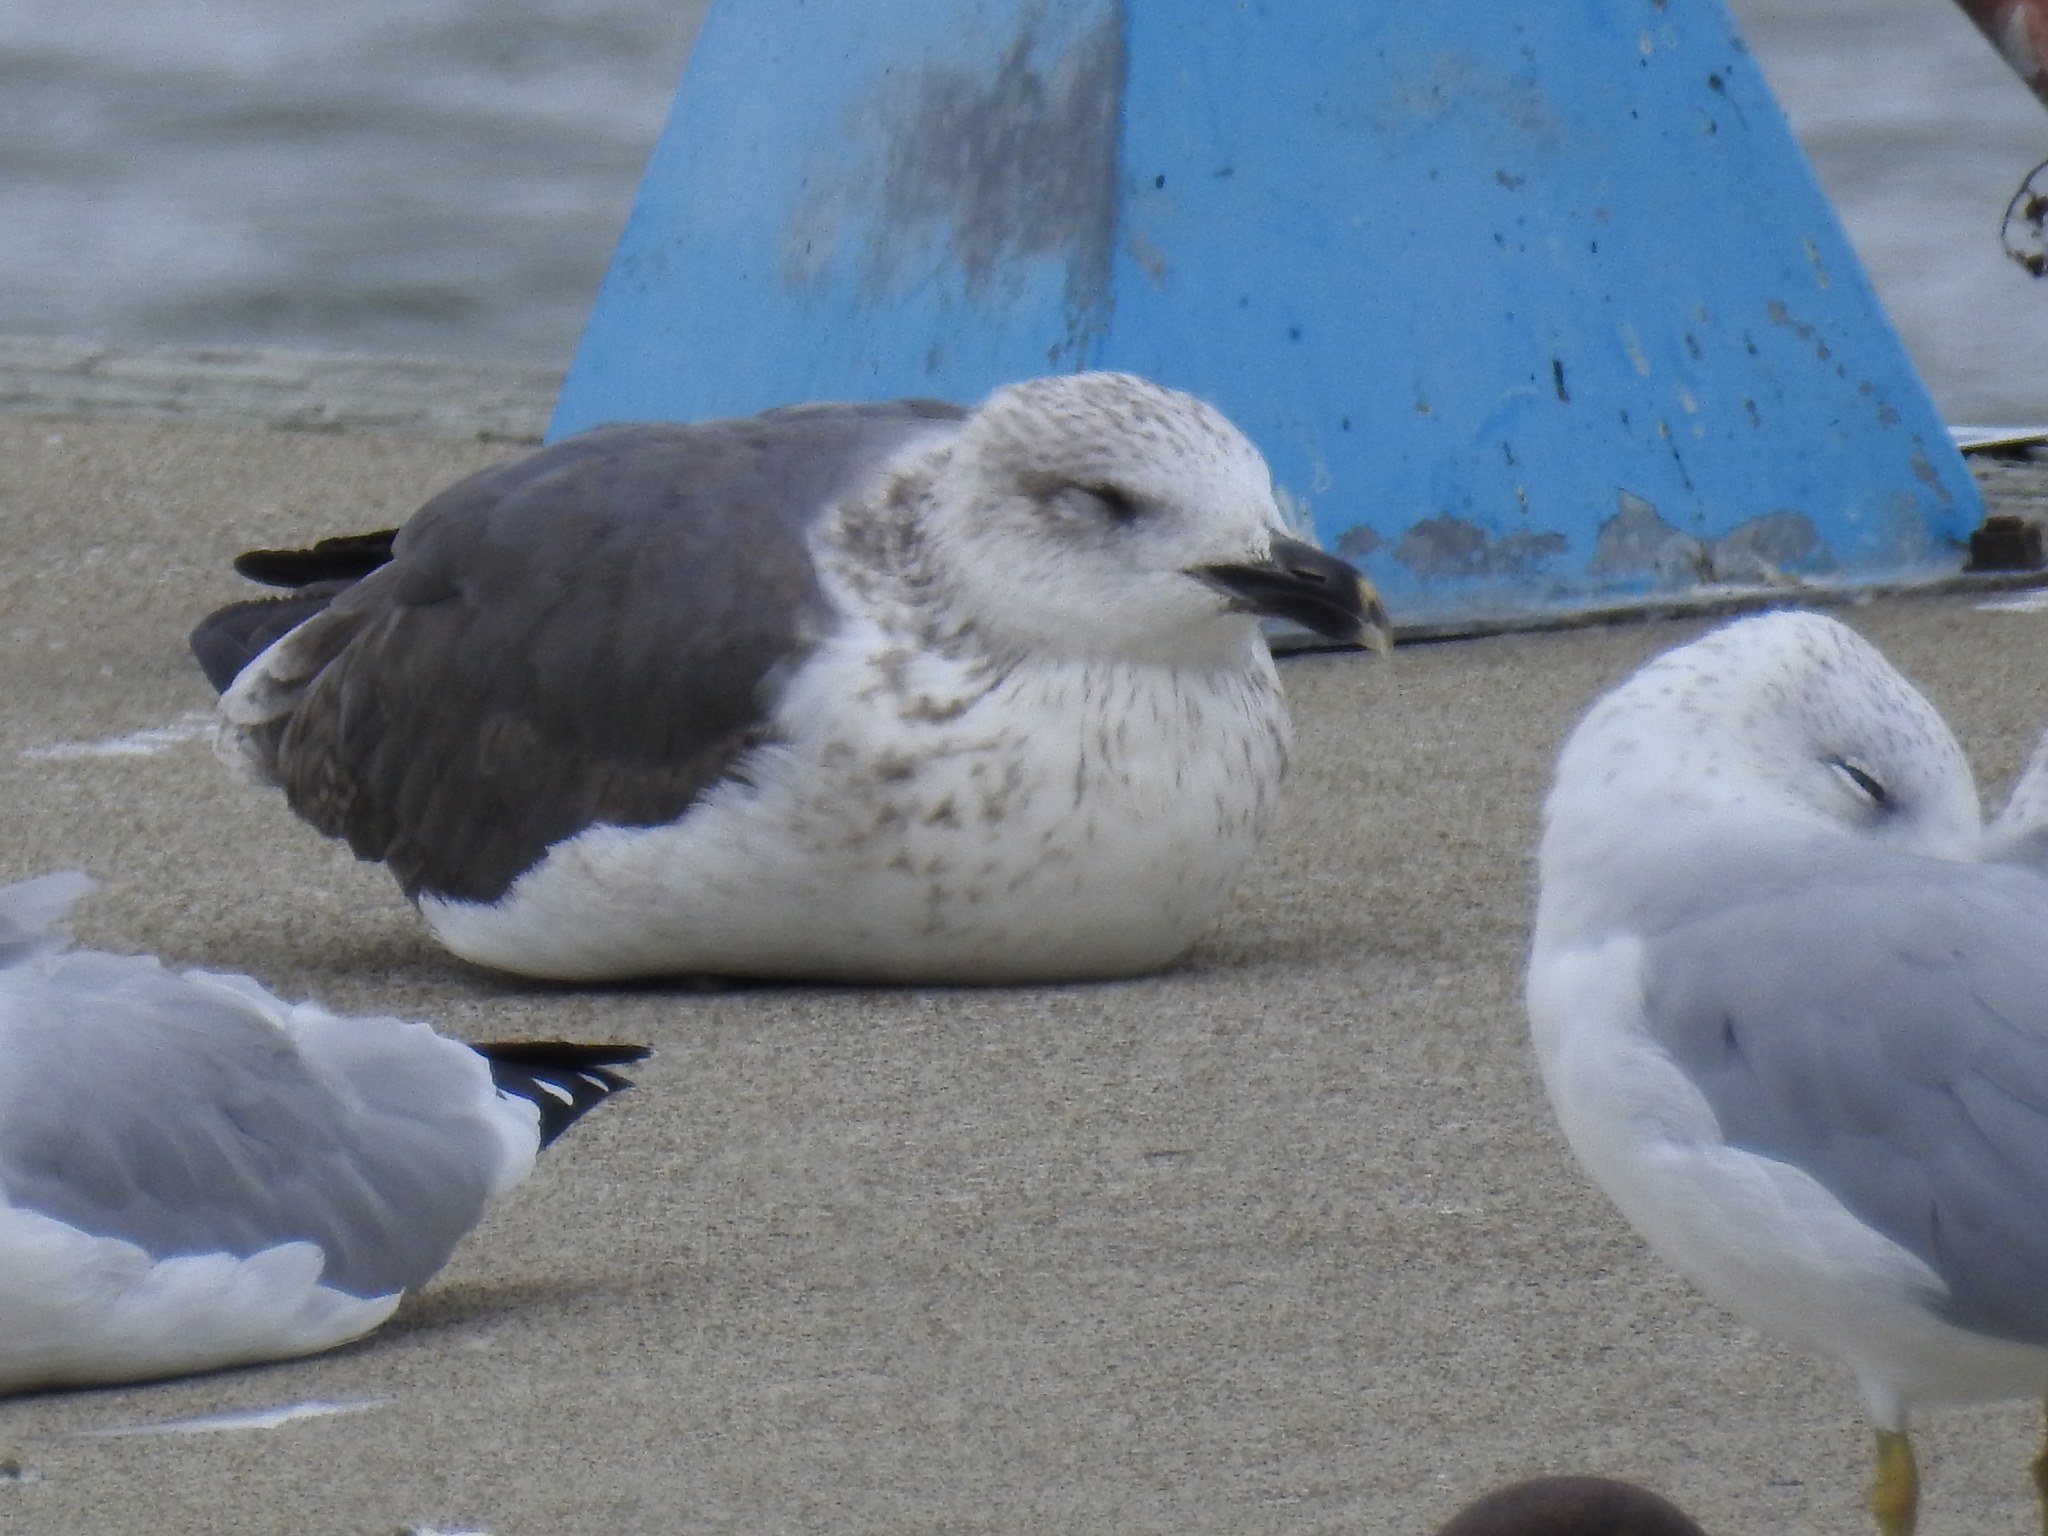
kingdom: Animalia
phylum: Chordata
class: Aves
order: Charadriiformes
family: Laridae
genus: Larus
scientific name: Larus fuscus
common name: Lesser black-backed gull
